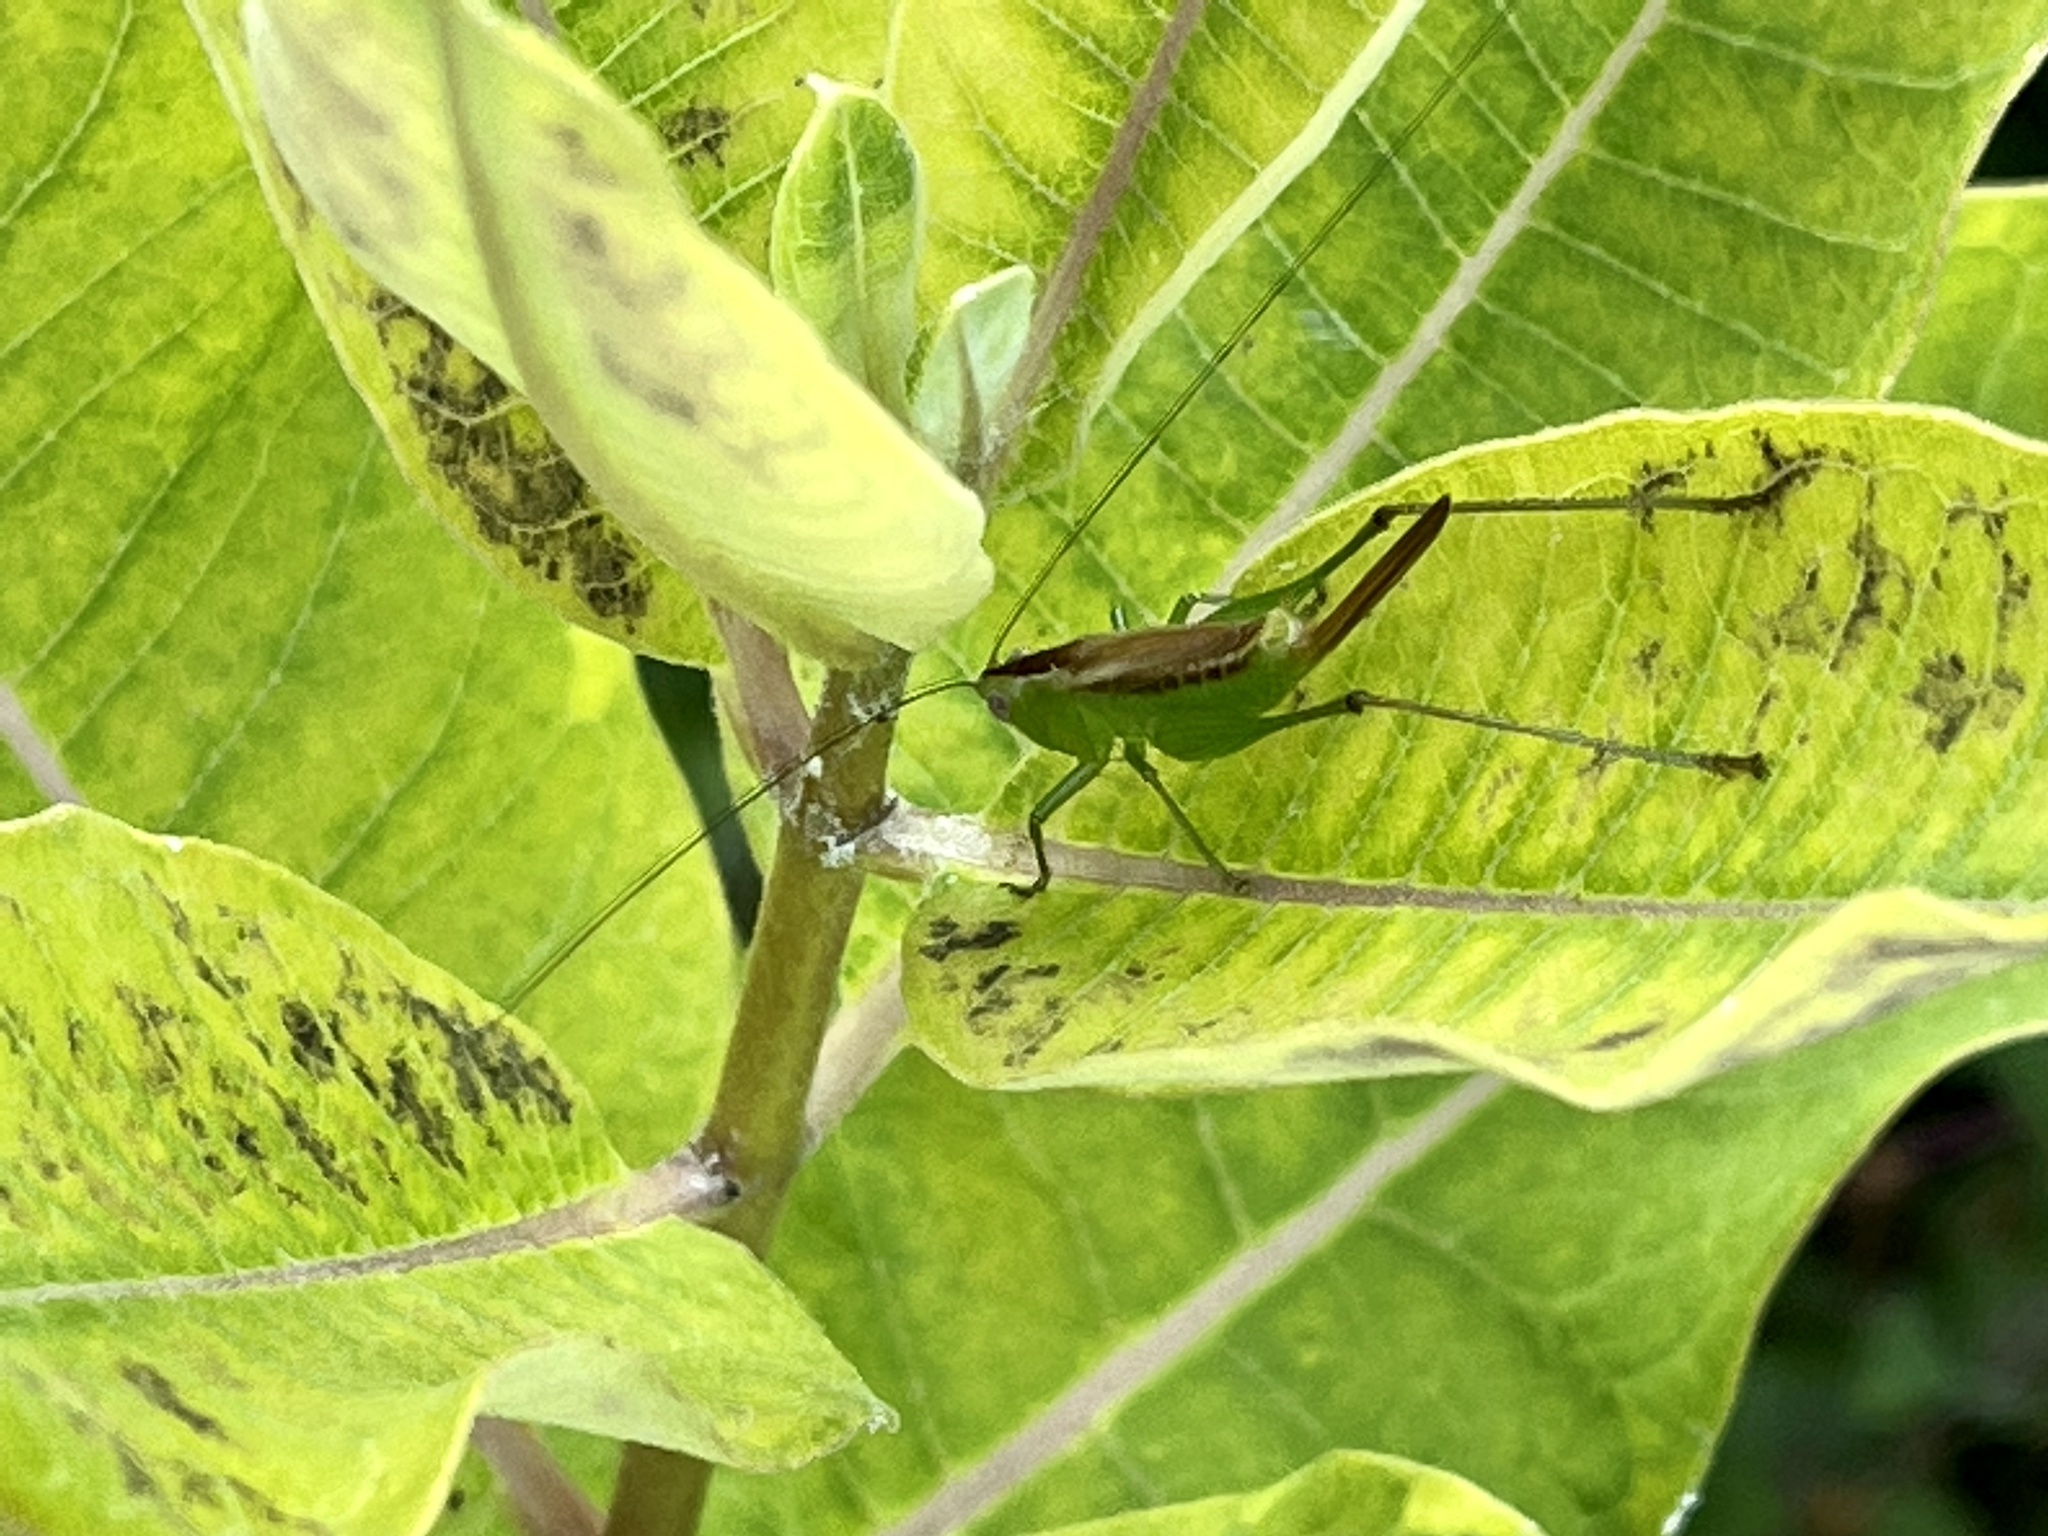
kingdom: Animalia
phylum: Arthropoda
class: Insecta
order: Orthoptera
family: Tettigoniidae
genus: Conocephalus
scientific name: Conocephalus brevipennis
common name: Short-winged meadow katydid
